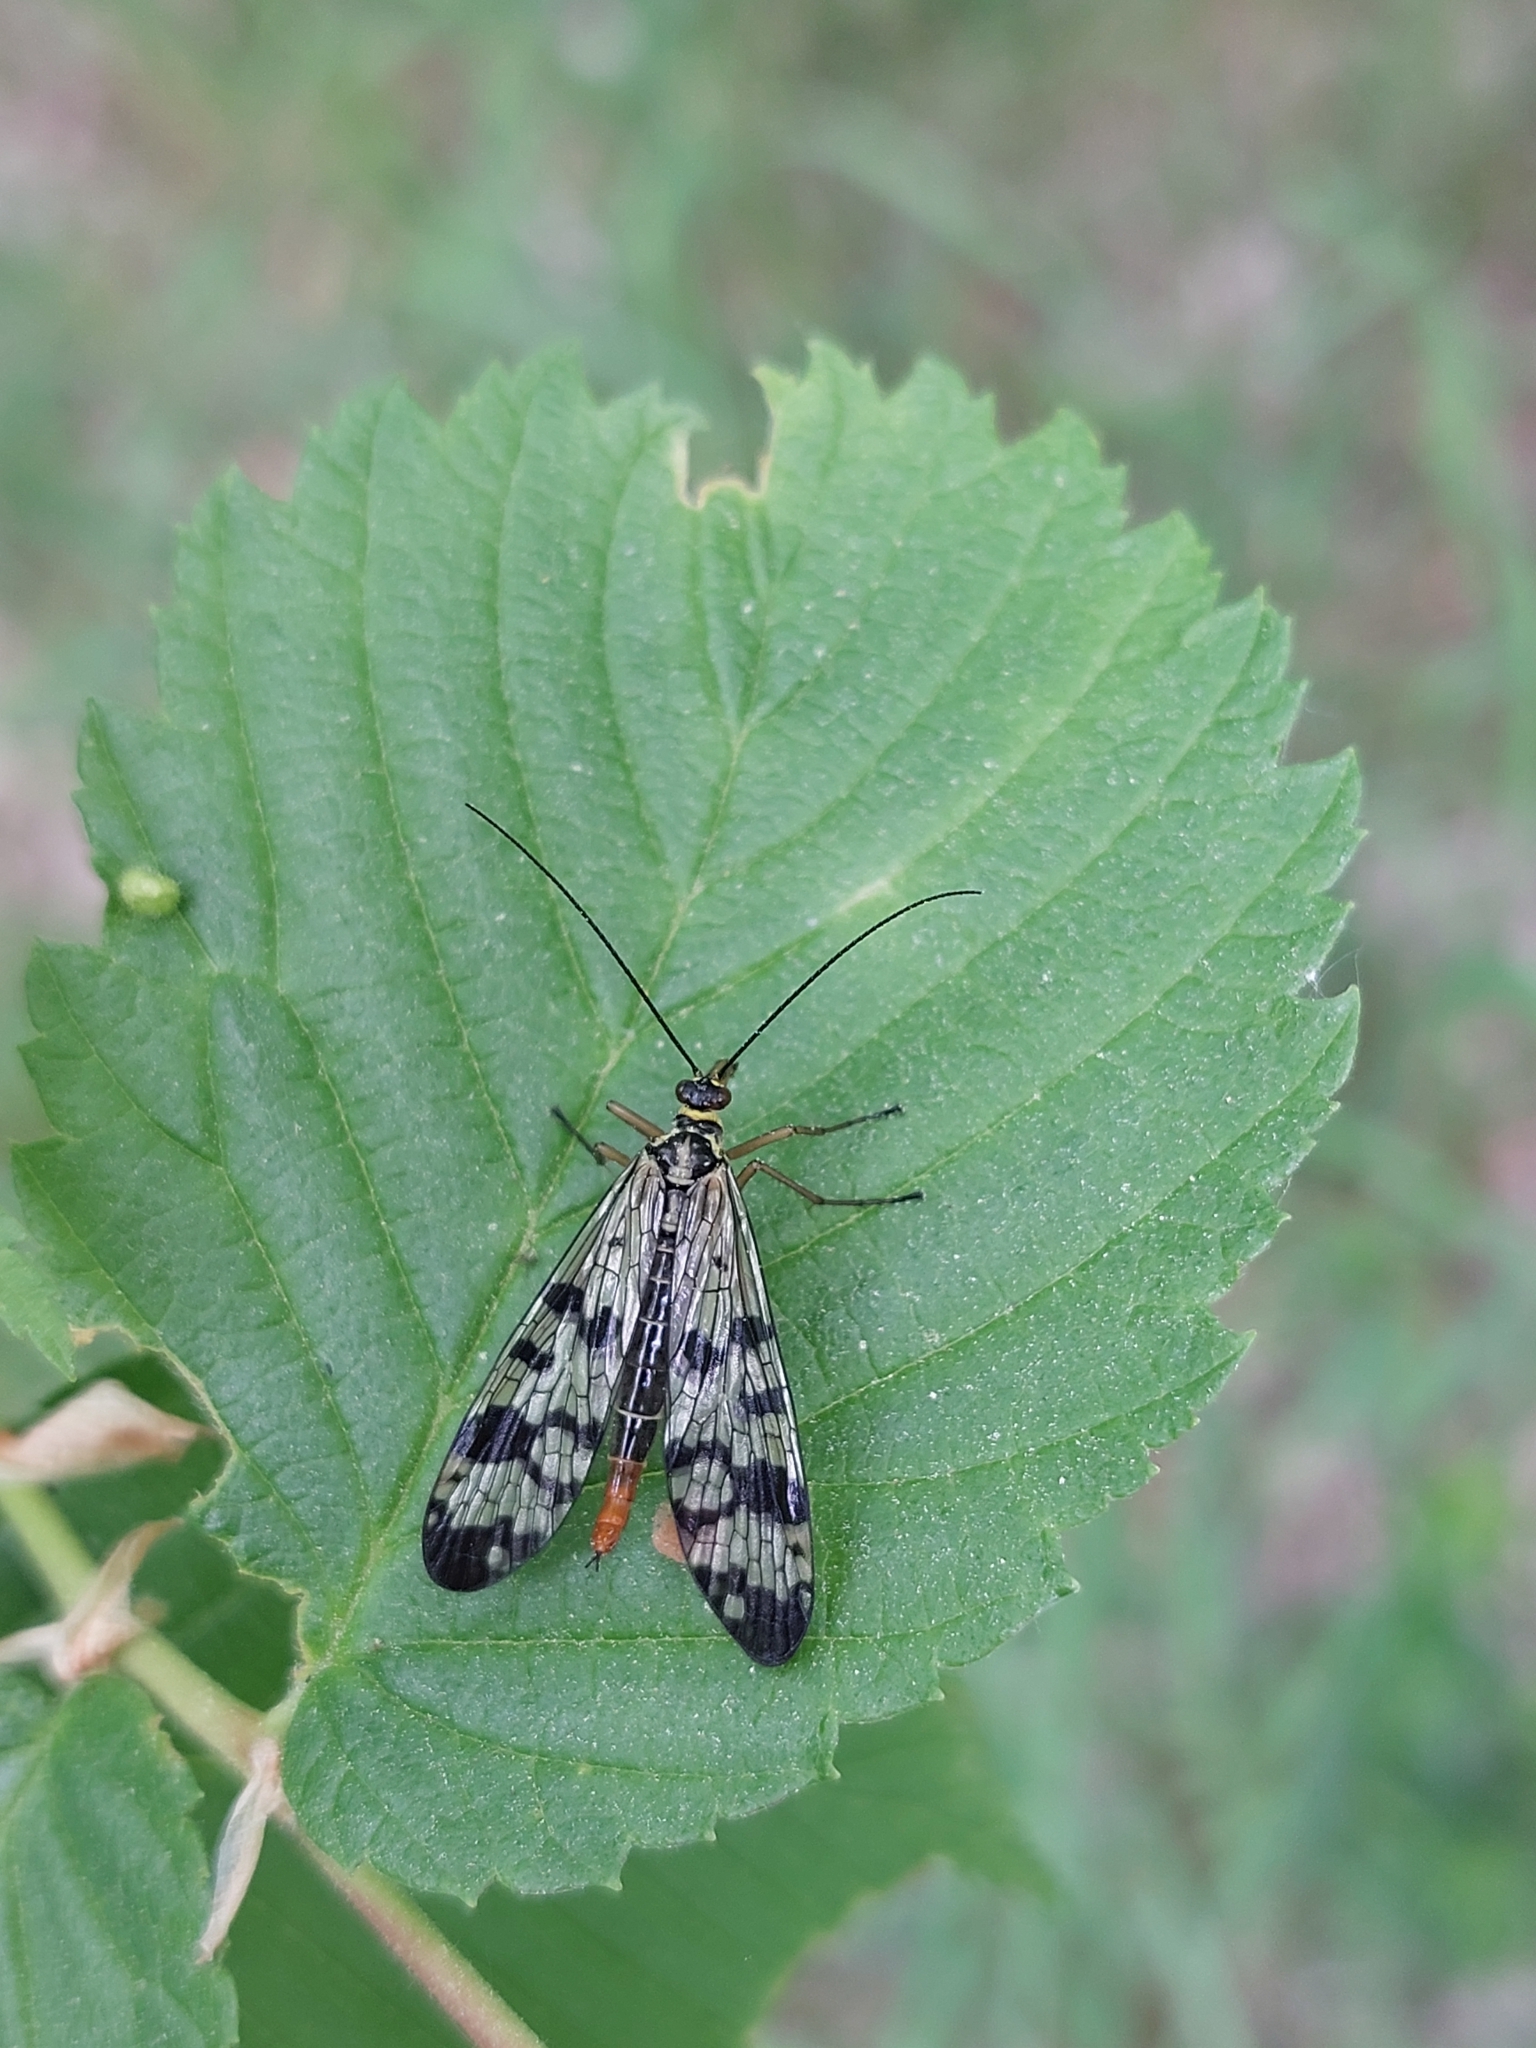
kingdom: Animalia
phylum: Arthropoda
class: Insecta
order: Mecoptera
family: Panorpidae
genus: Panorpa
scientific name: Panorpa communis
